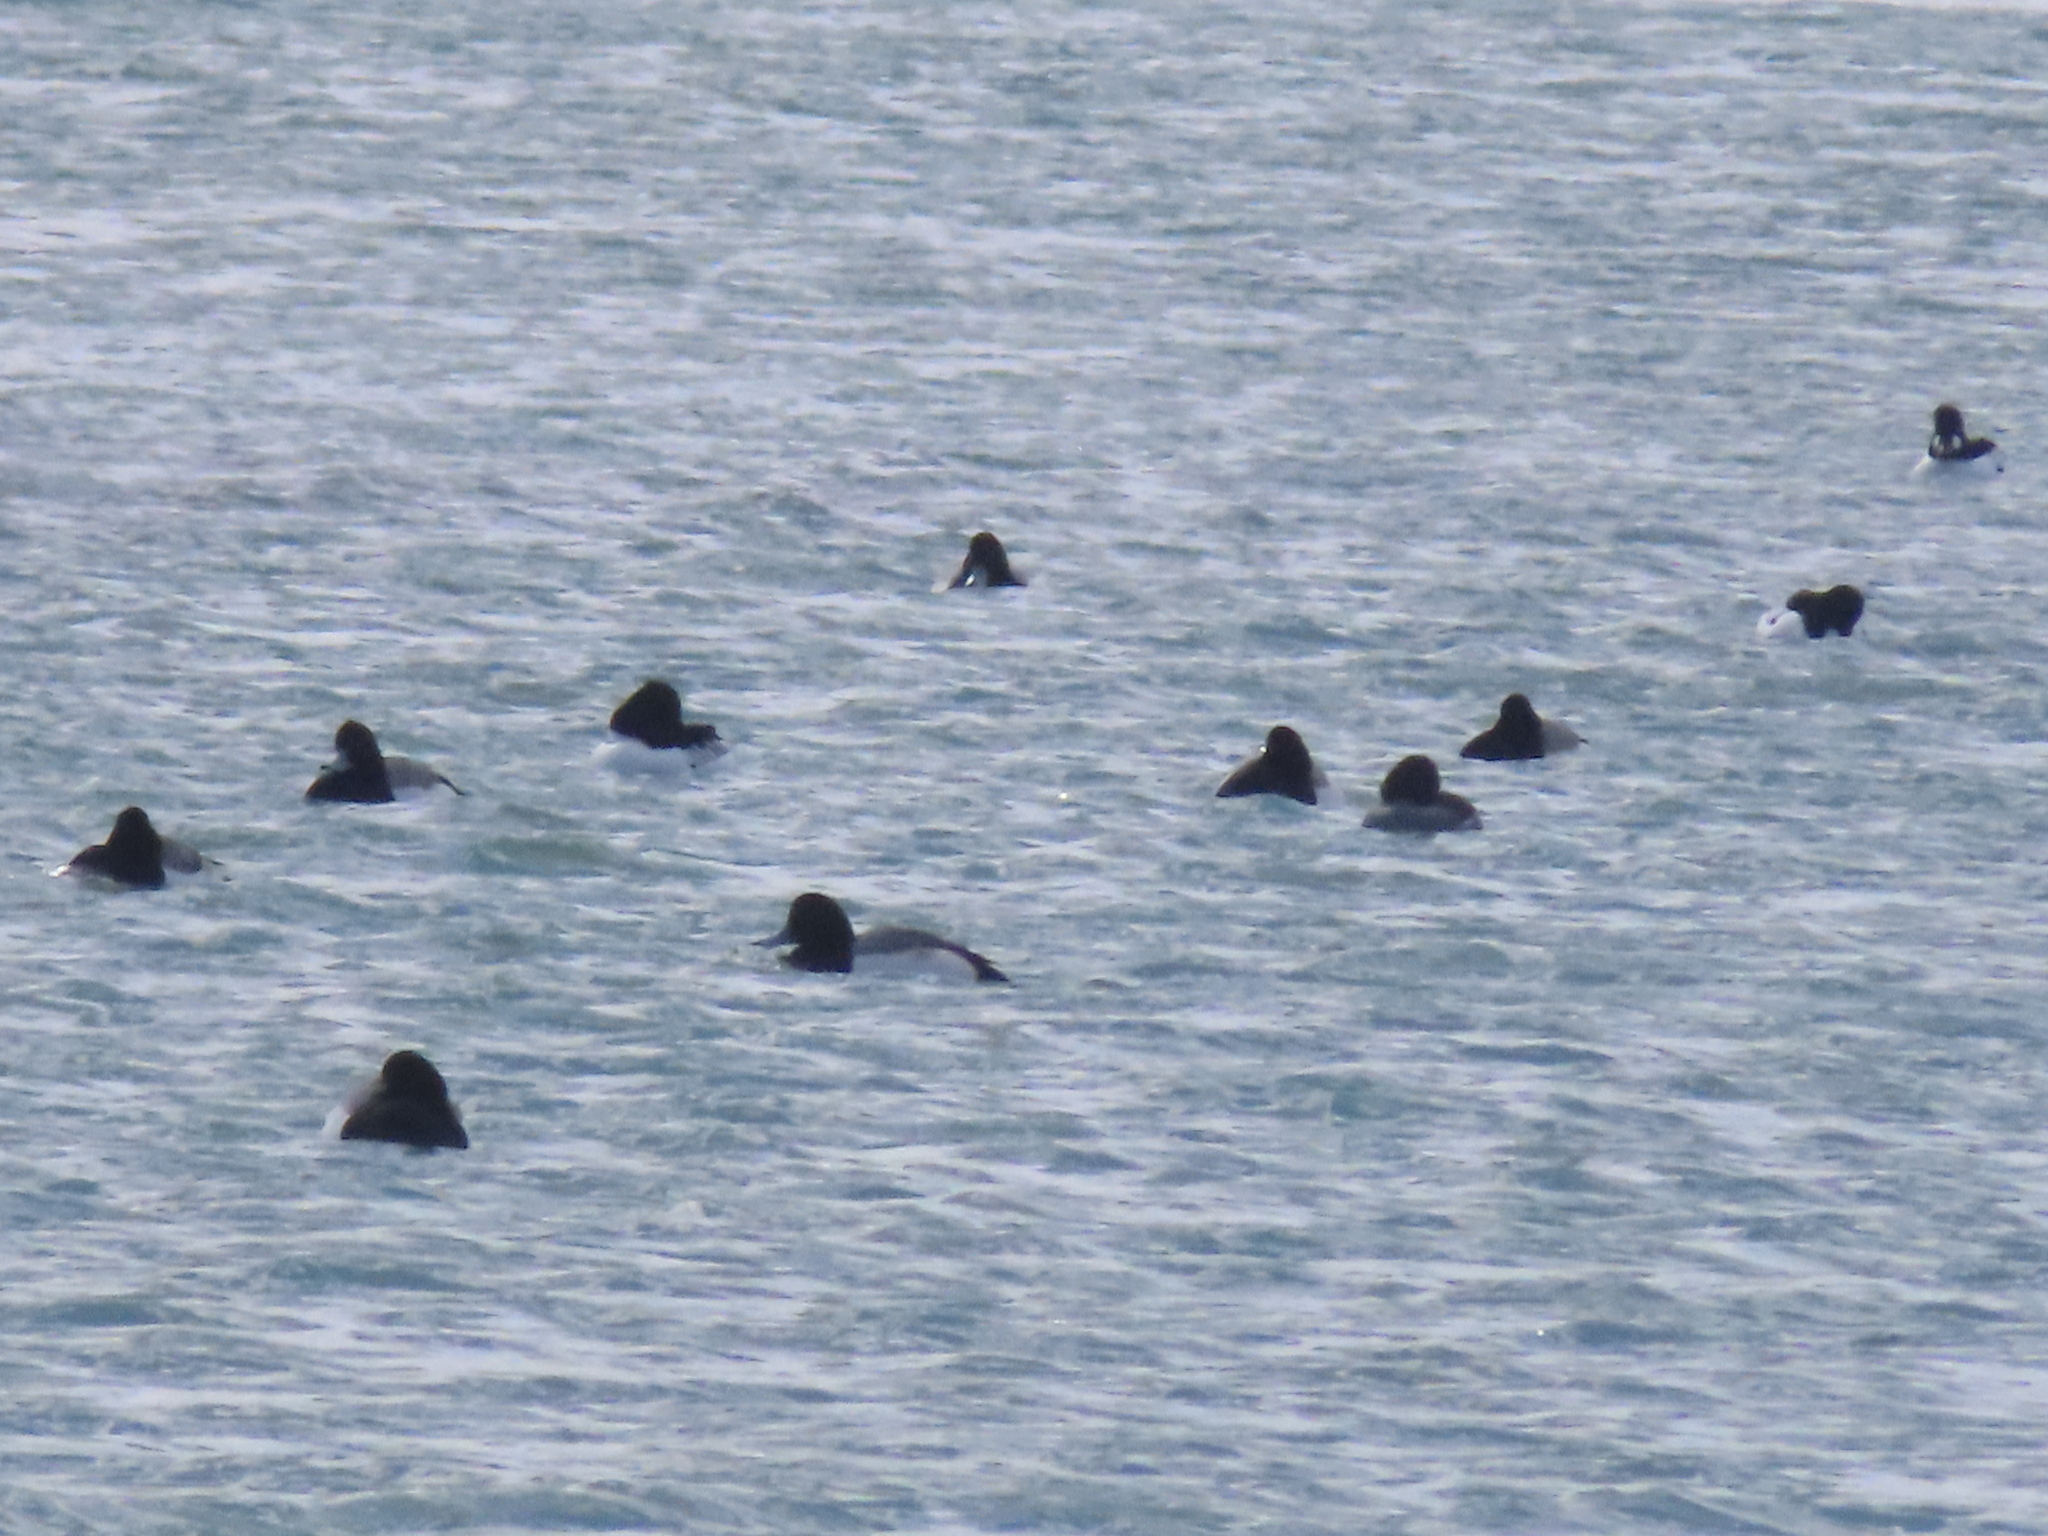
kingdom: Animalia
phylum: Chordata
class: Aves
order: Anseriformes
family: Anatidae
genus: Aythya
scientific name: Aythya marila
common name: Greater scaup
